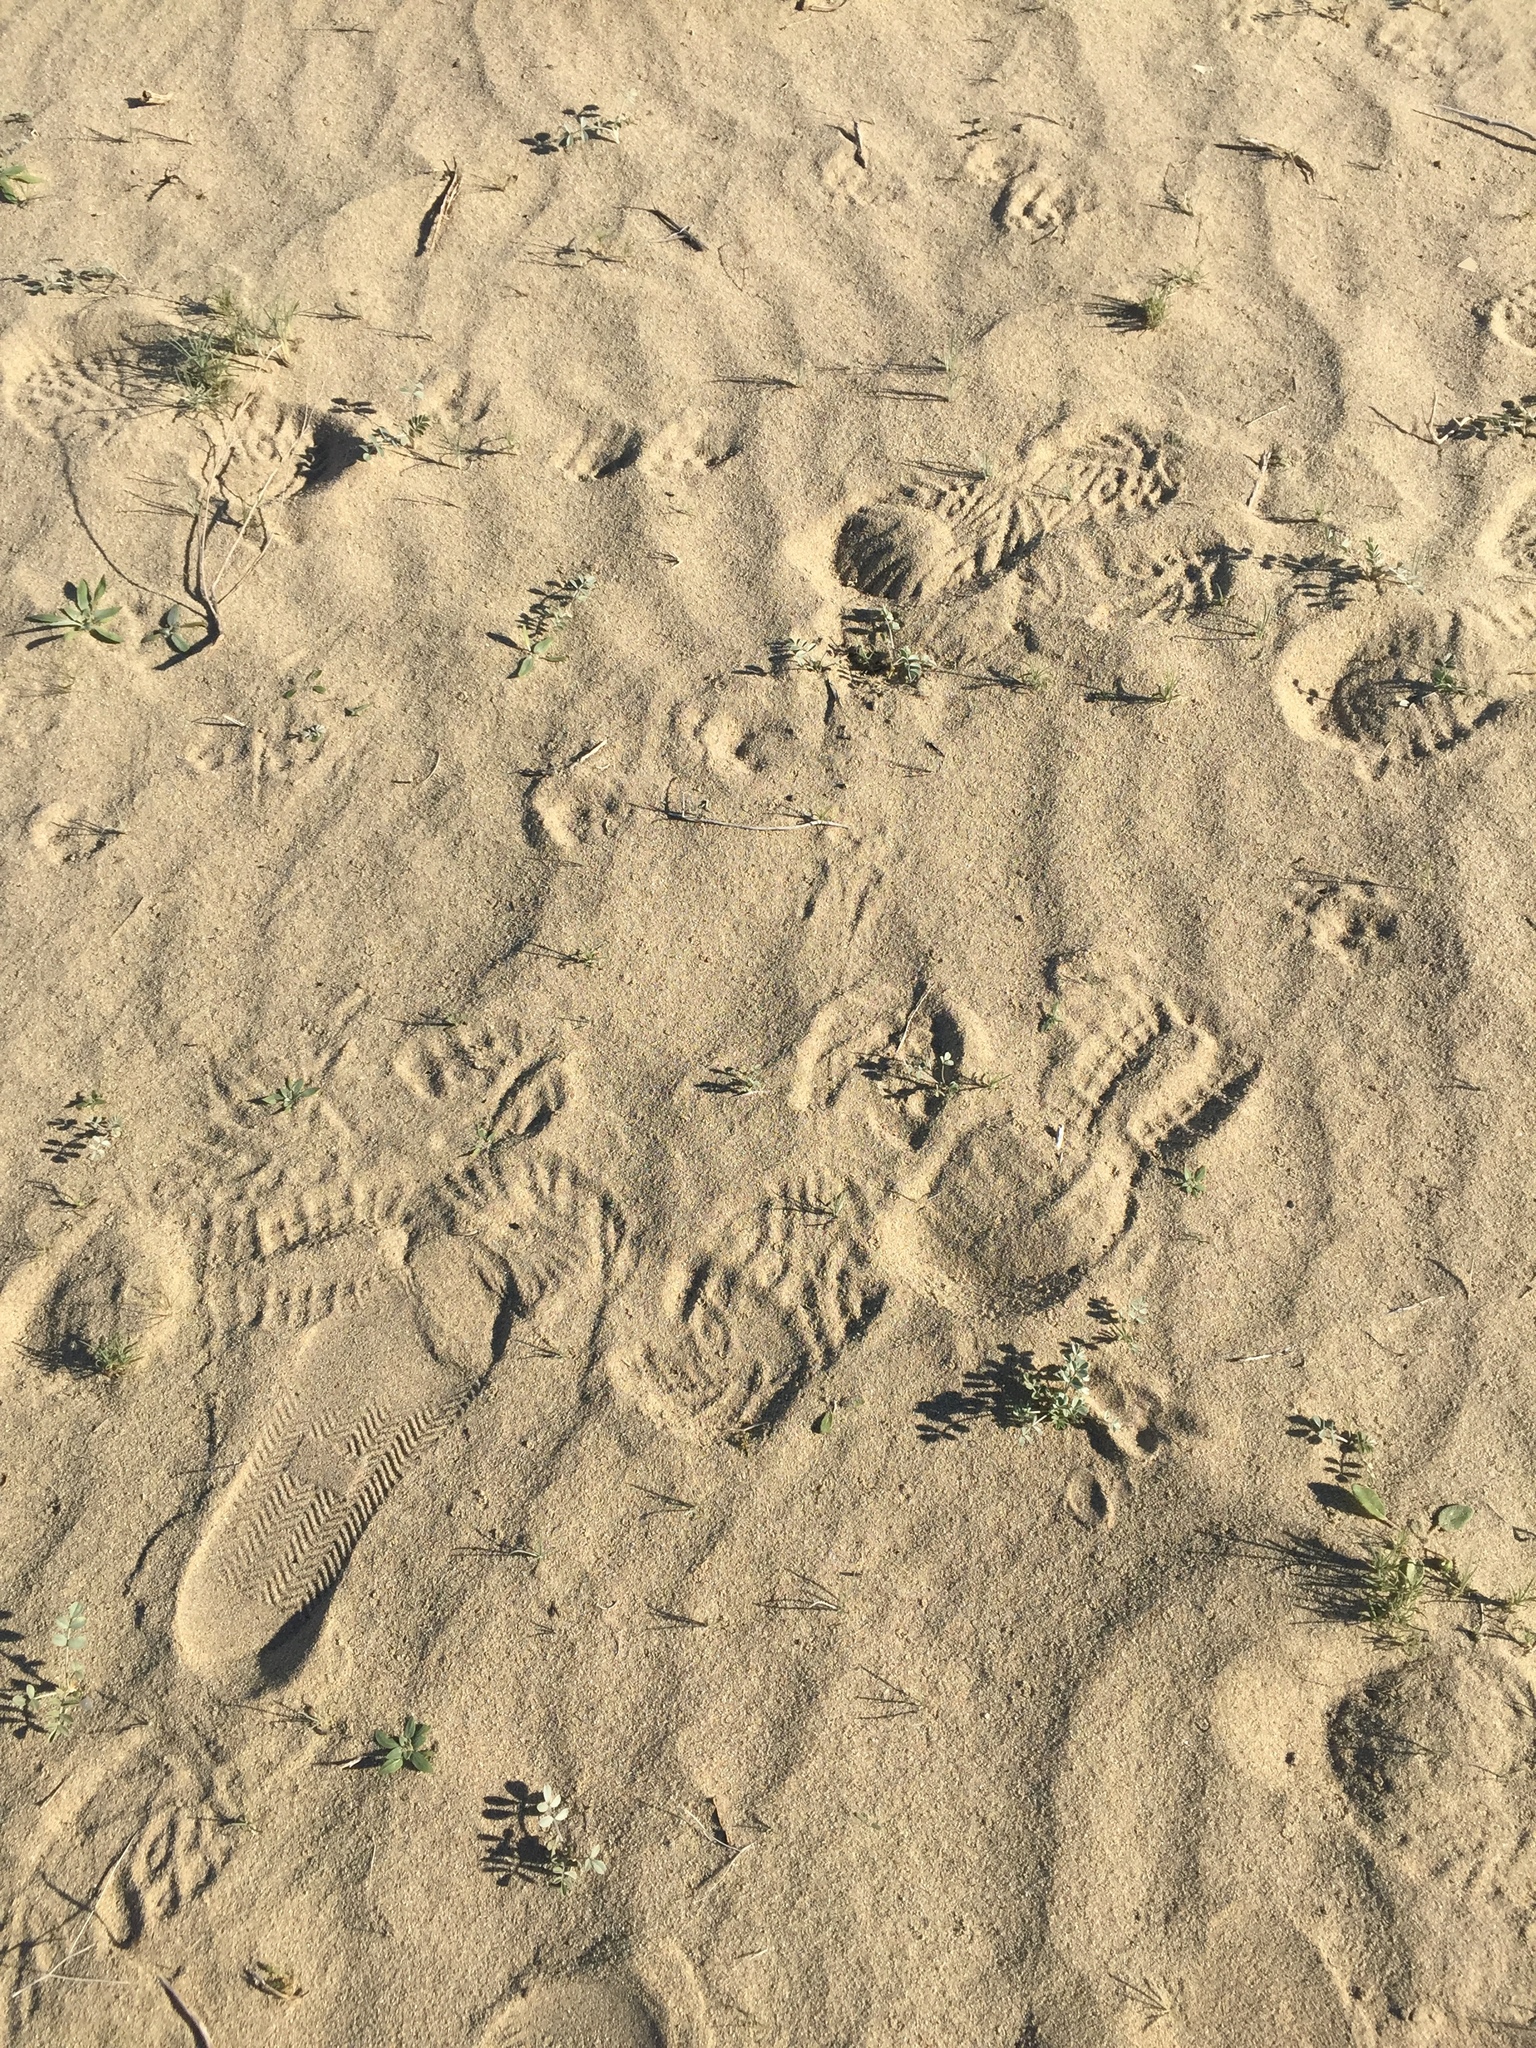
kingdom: Plantae
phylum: Tracheophyta
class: Magnoliopsida
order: Fabales
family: Fabaceae
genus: Astragalus
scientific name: Astragalus lentiginosus
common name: Freckled milkvetch
